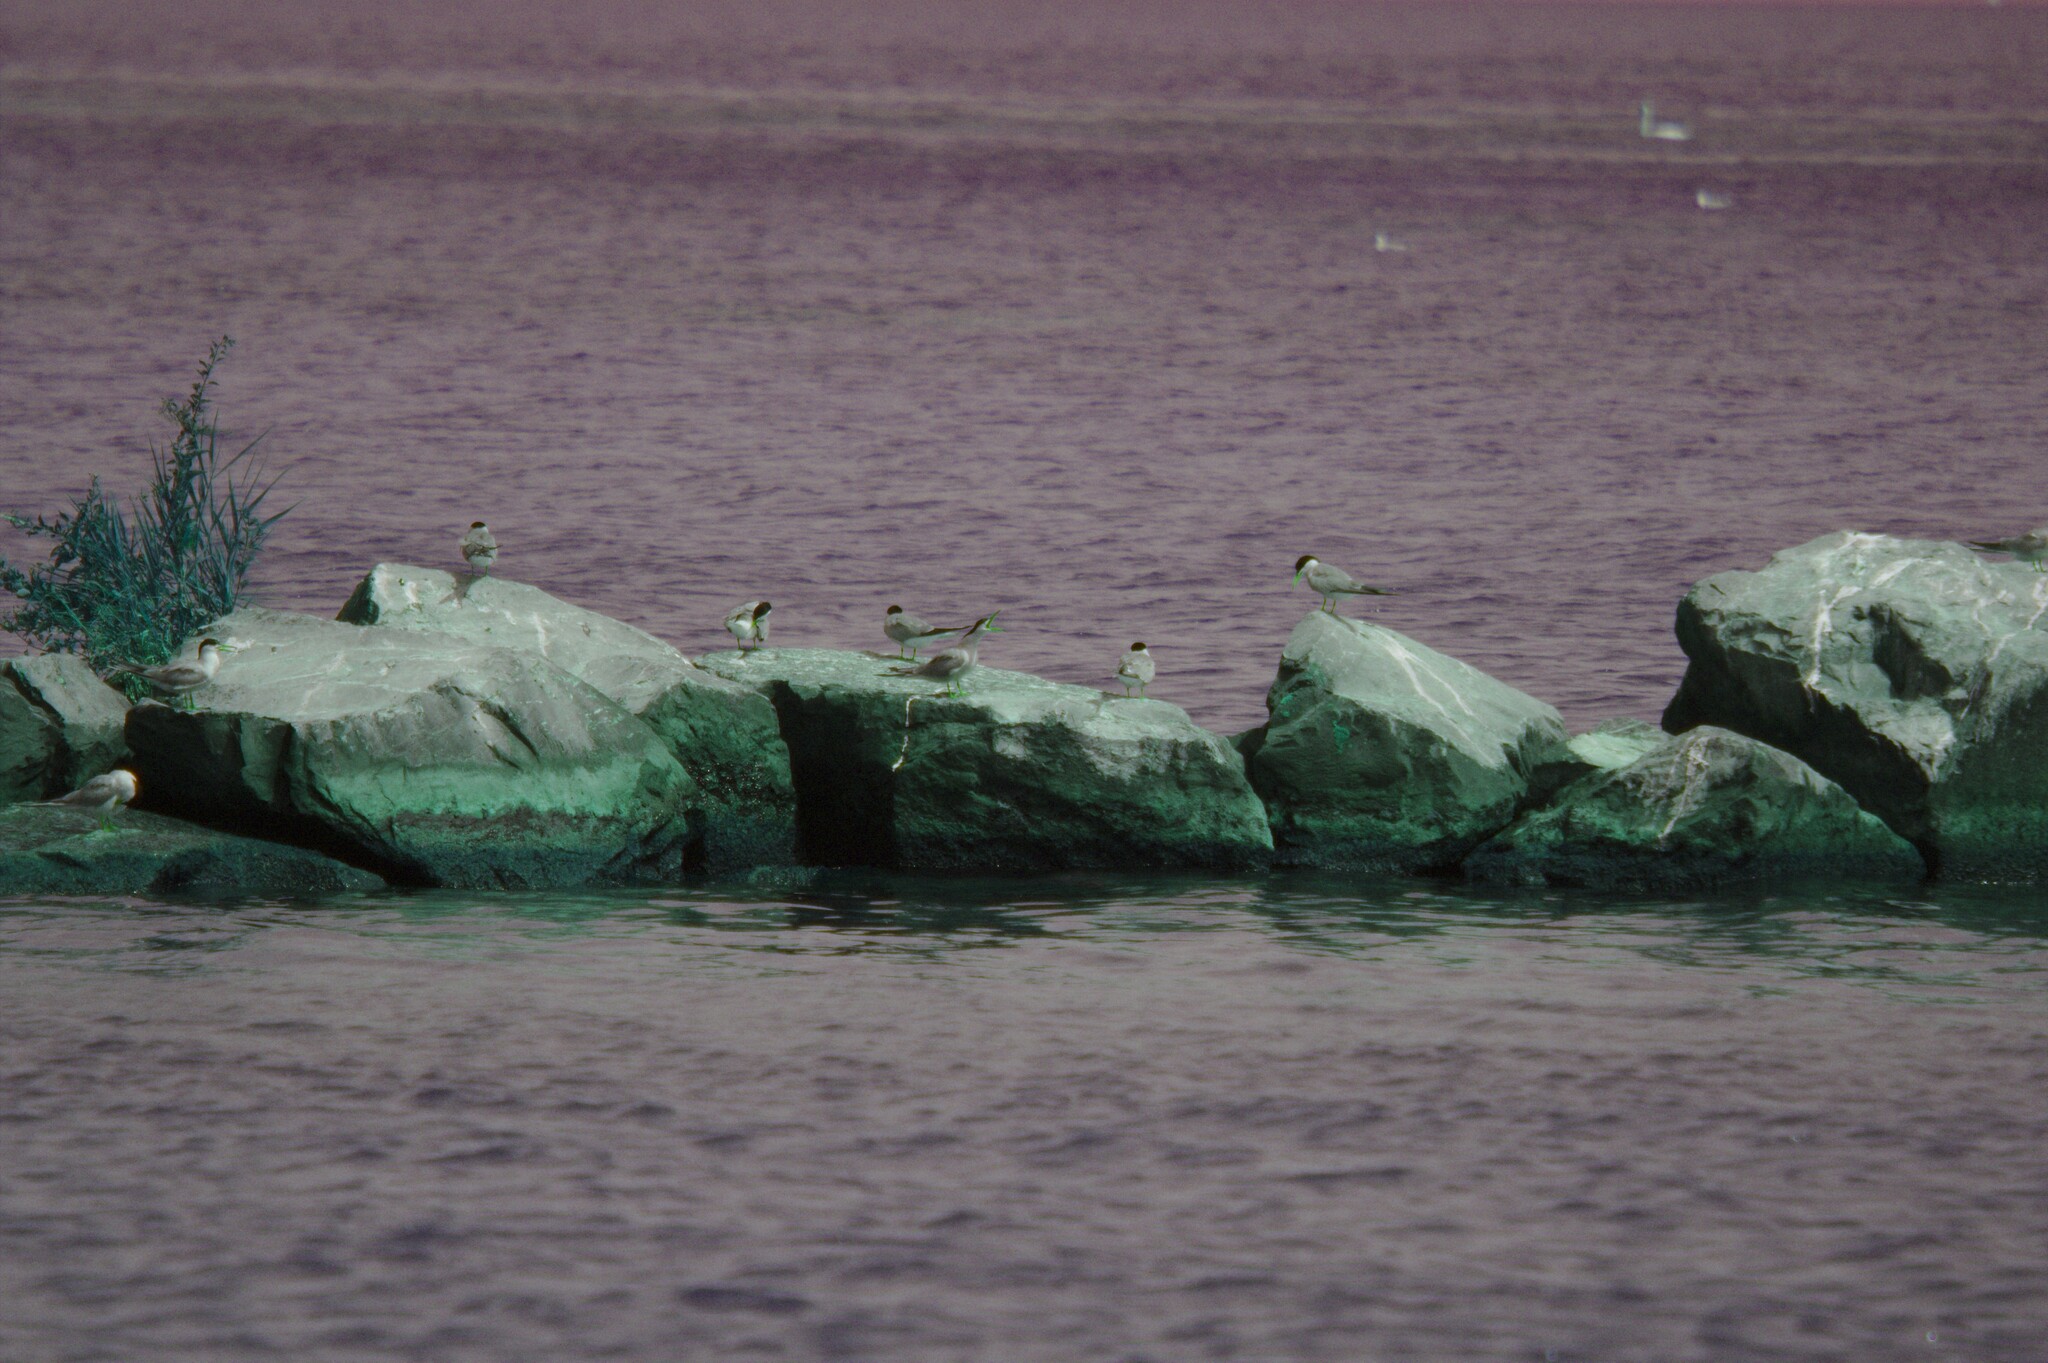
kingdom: Animalia
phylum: Chordata
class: Aves
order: Charadriiformes
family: Laridae
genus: Sterna
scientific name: Sterna hirundo
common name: Common tern
